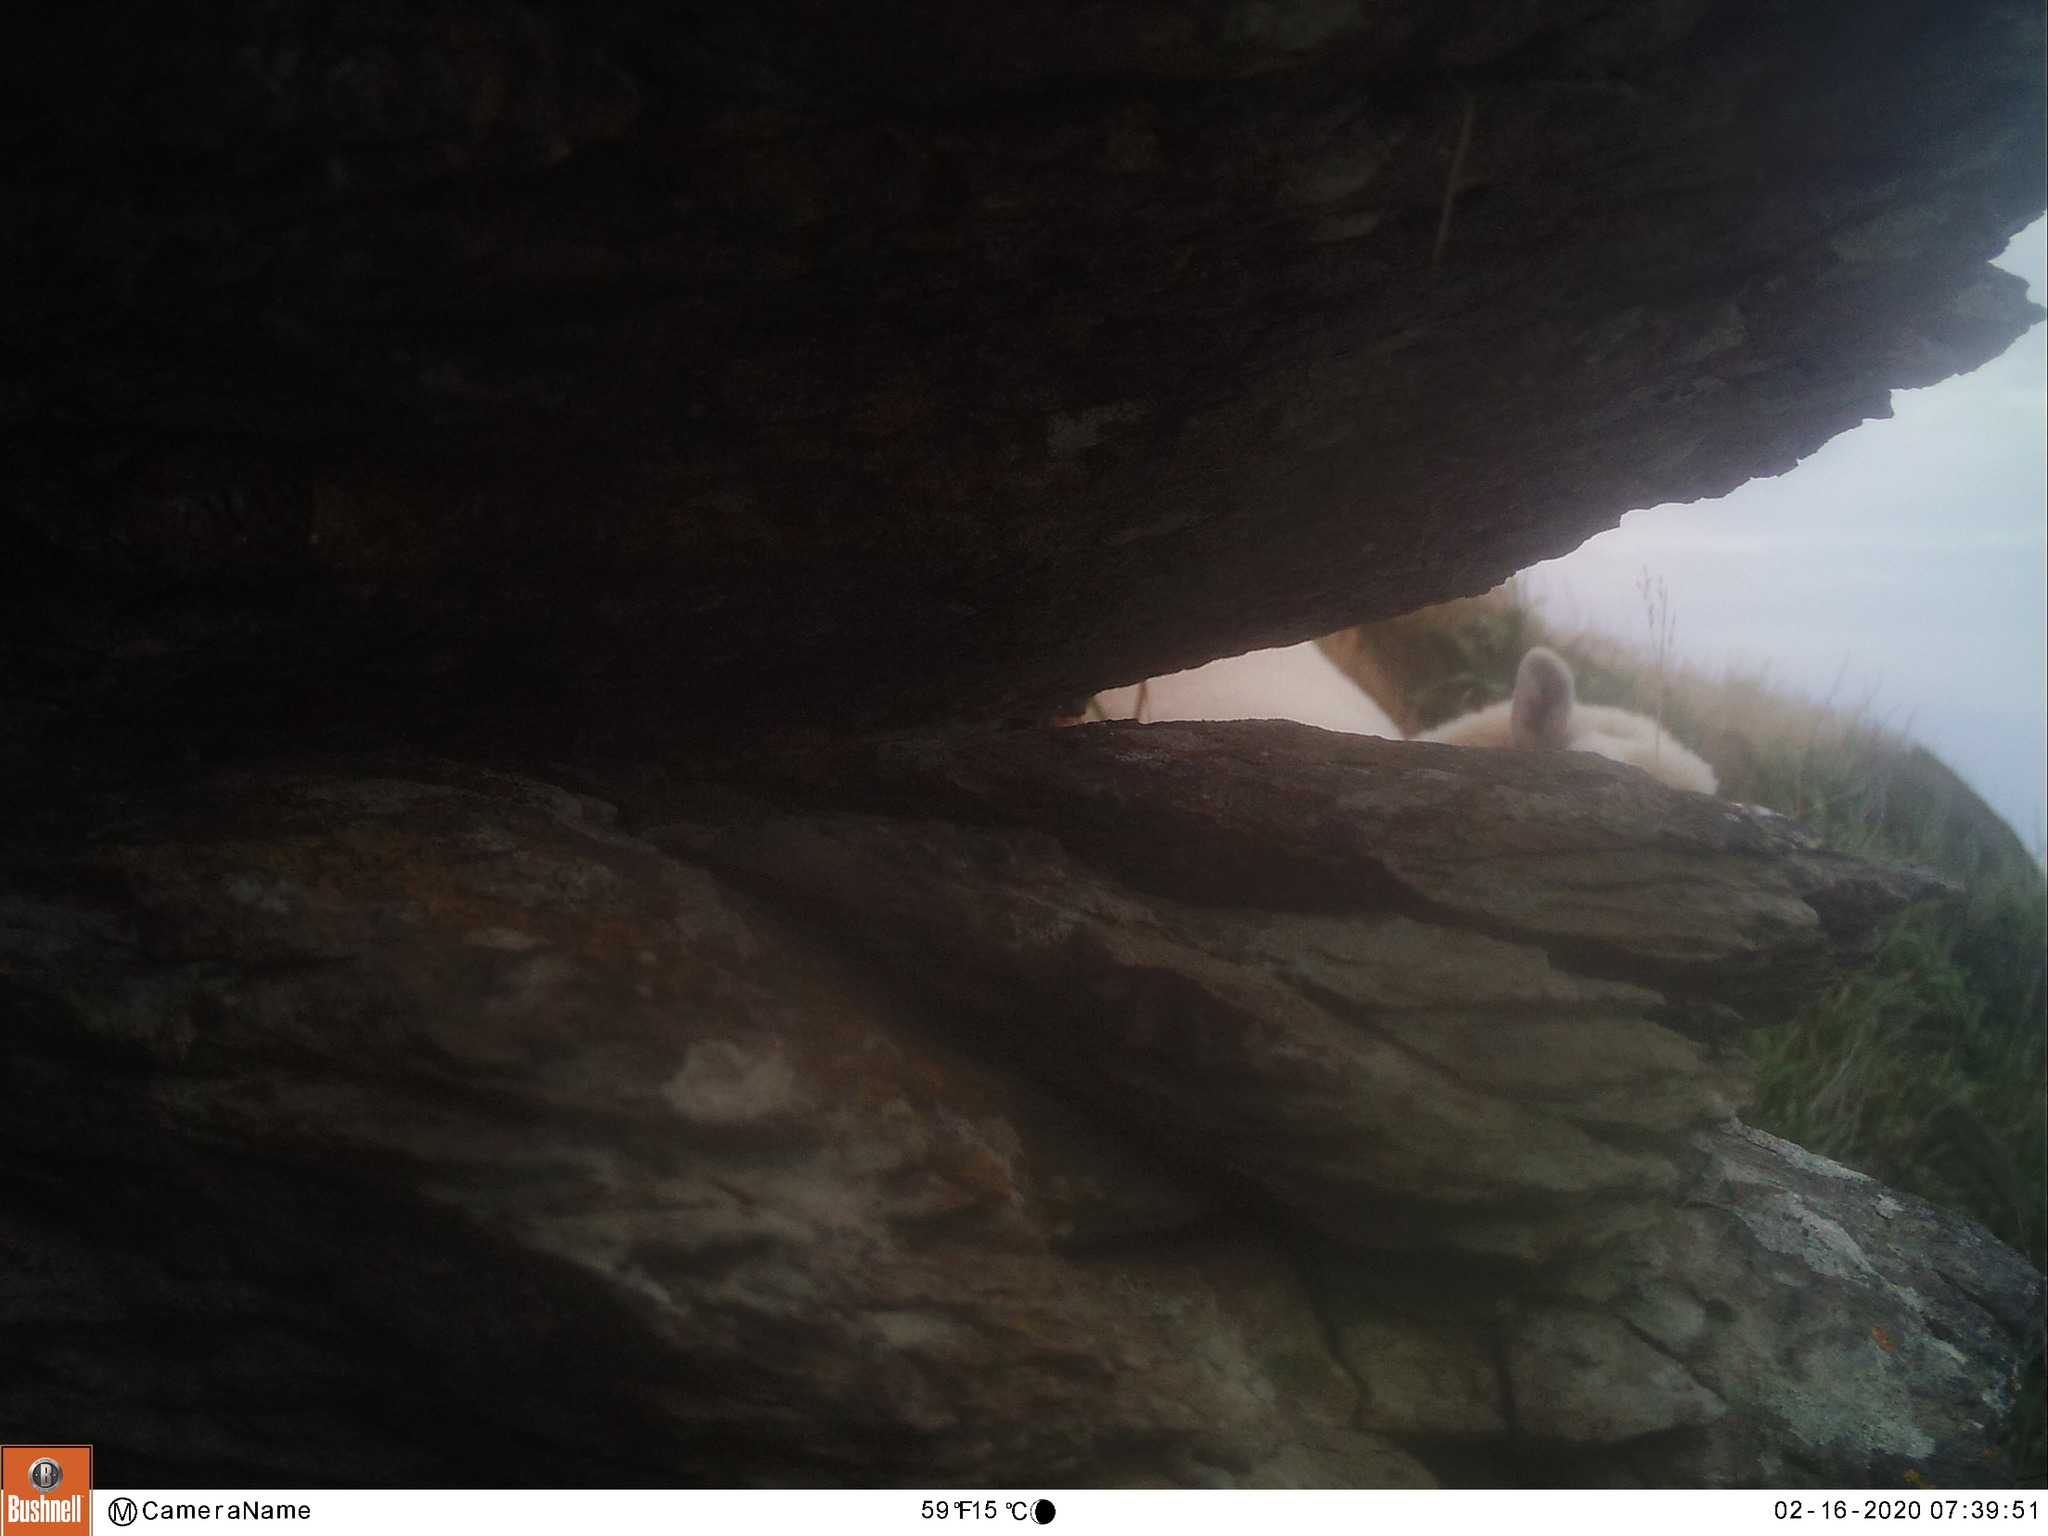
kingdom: Animalia
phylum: Chordata
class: Mammalia
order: Artiodactyla
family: Bovidae
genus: Ovis
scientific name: Ovis aries
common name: Domestic sheep
